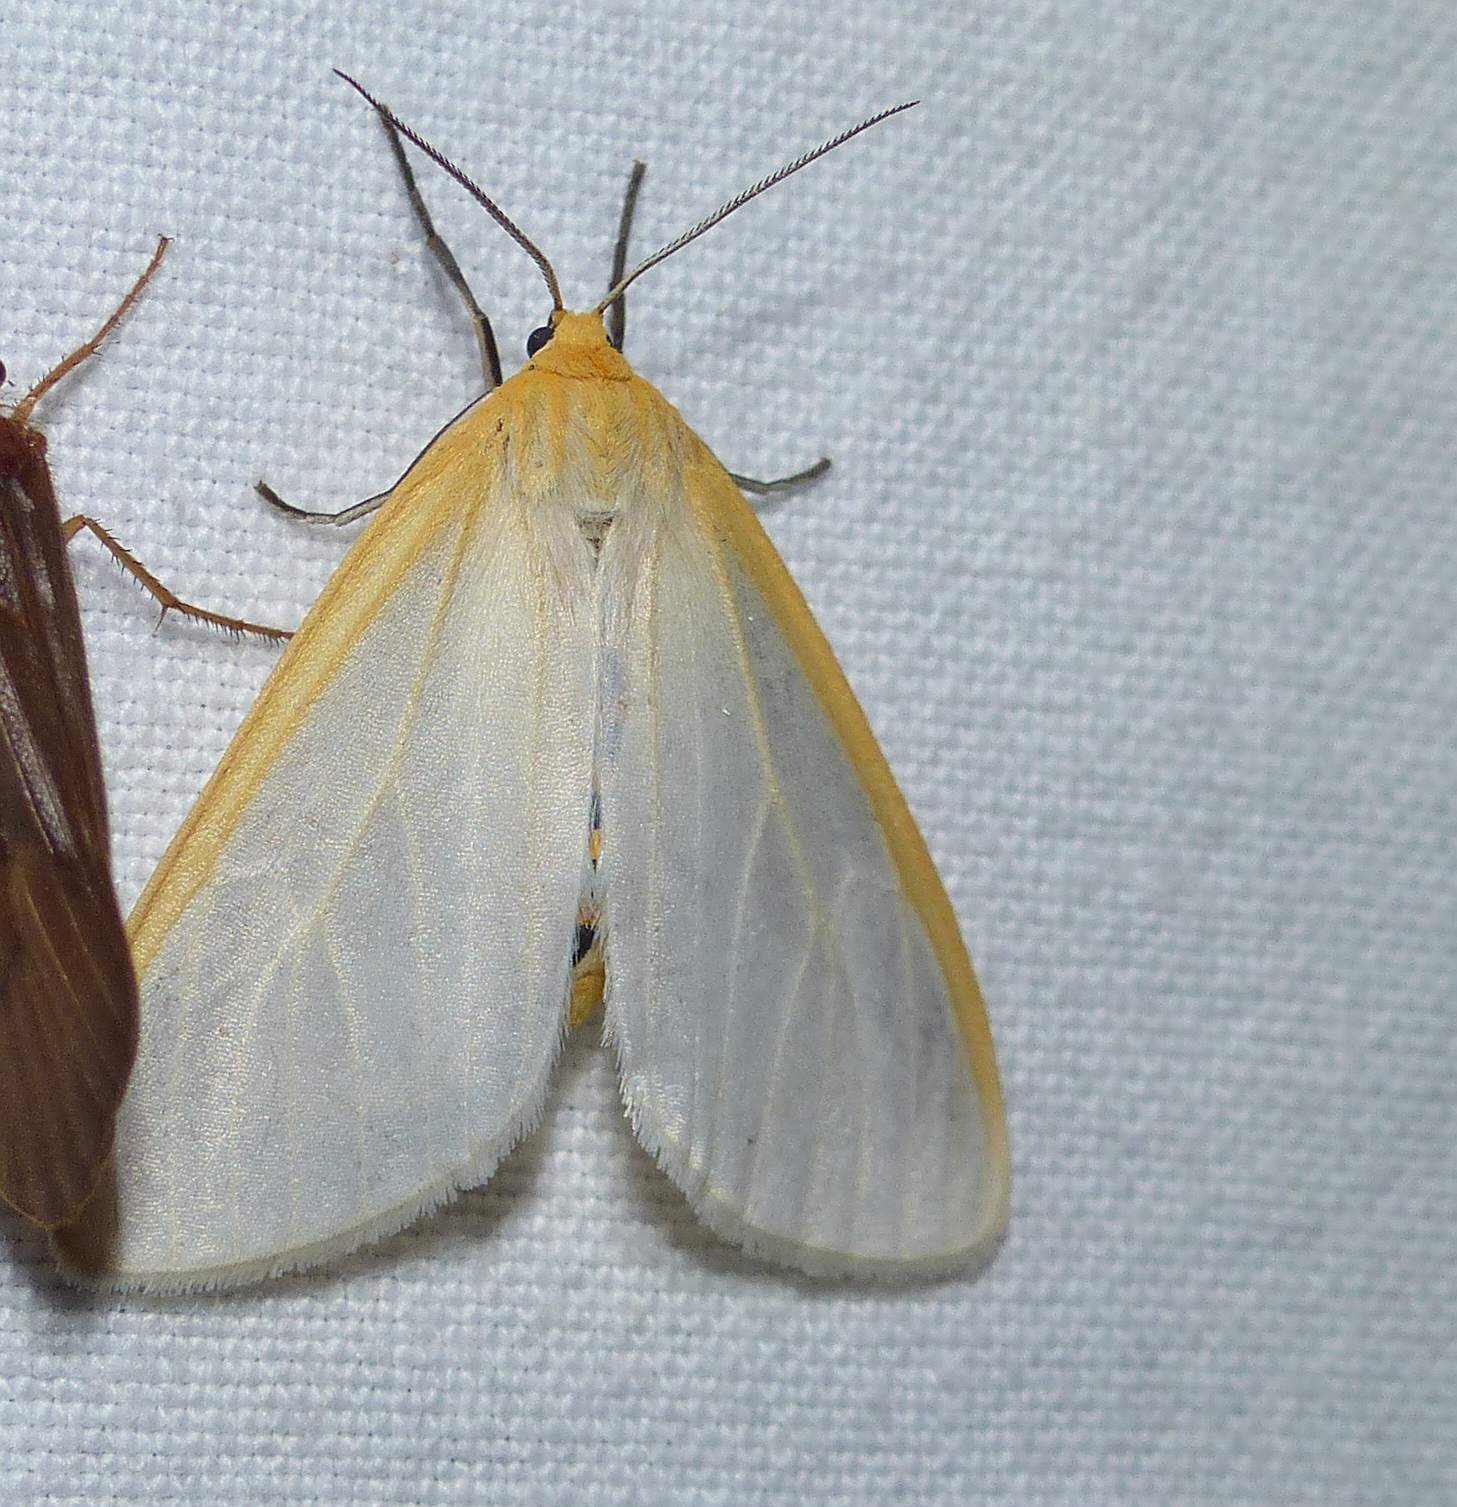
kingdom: Animalia
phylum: Arthropoda
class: Insecta
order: Lepidoptera
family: Erebidae
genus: Cycnia
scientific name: Cycnia tenera
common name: Delicate cycnia moth
